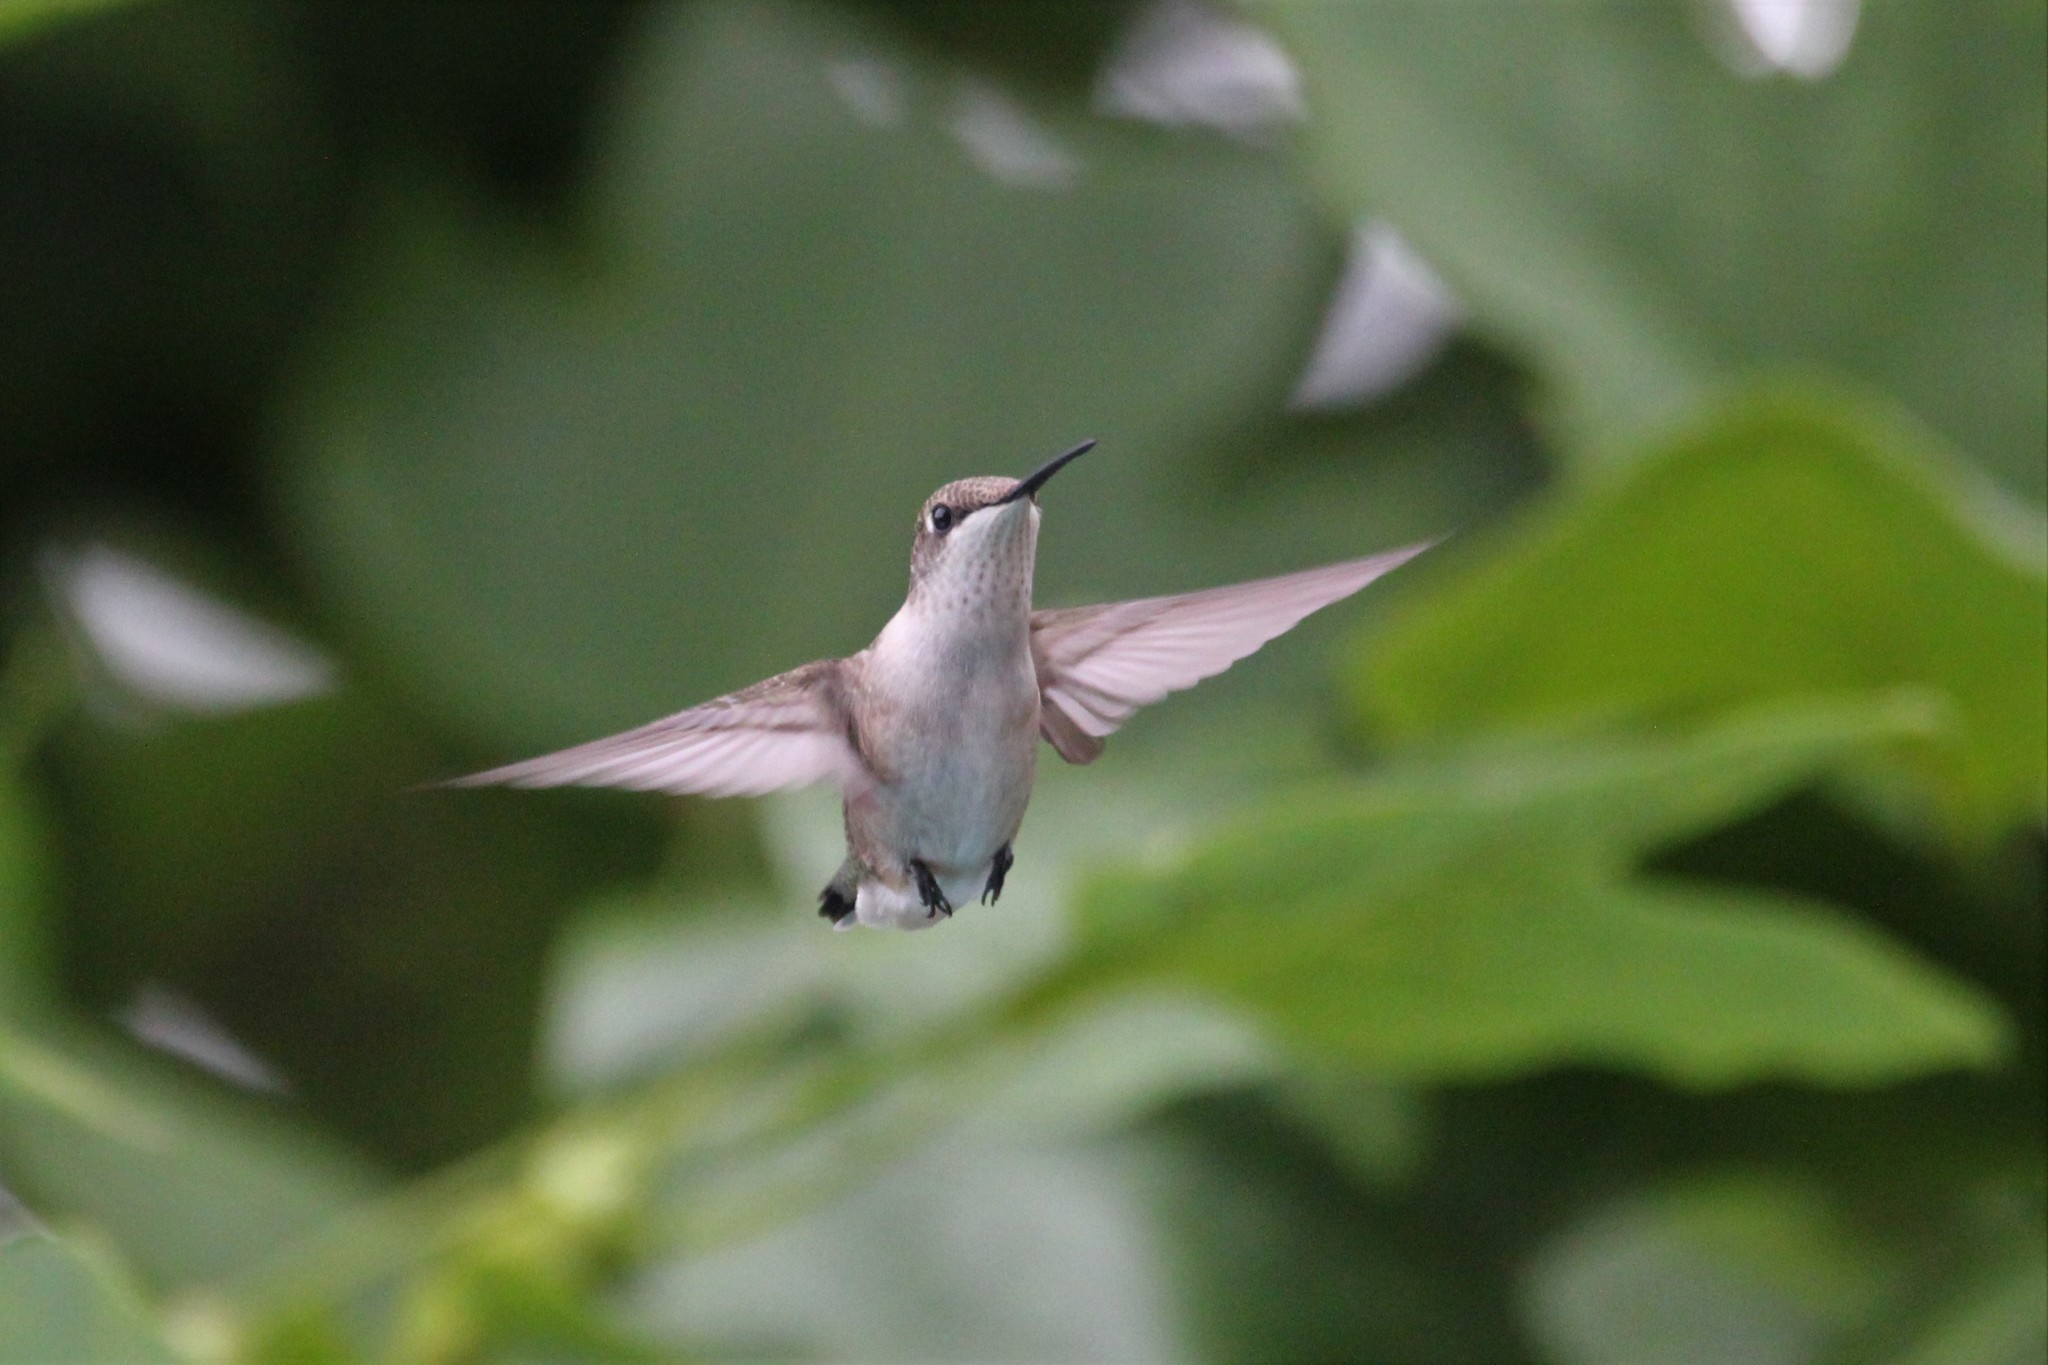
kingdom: Animalia
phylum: Chordata
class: Aves
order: Apodiformes
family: Trochilidae
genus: Archilochus
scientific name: Archilochus colubris
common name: Ruby-throated hummingbird
